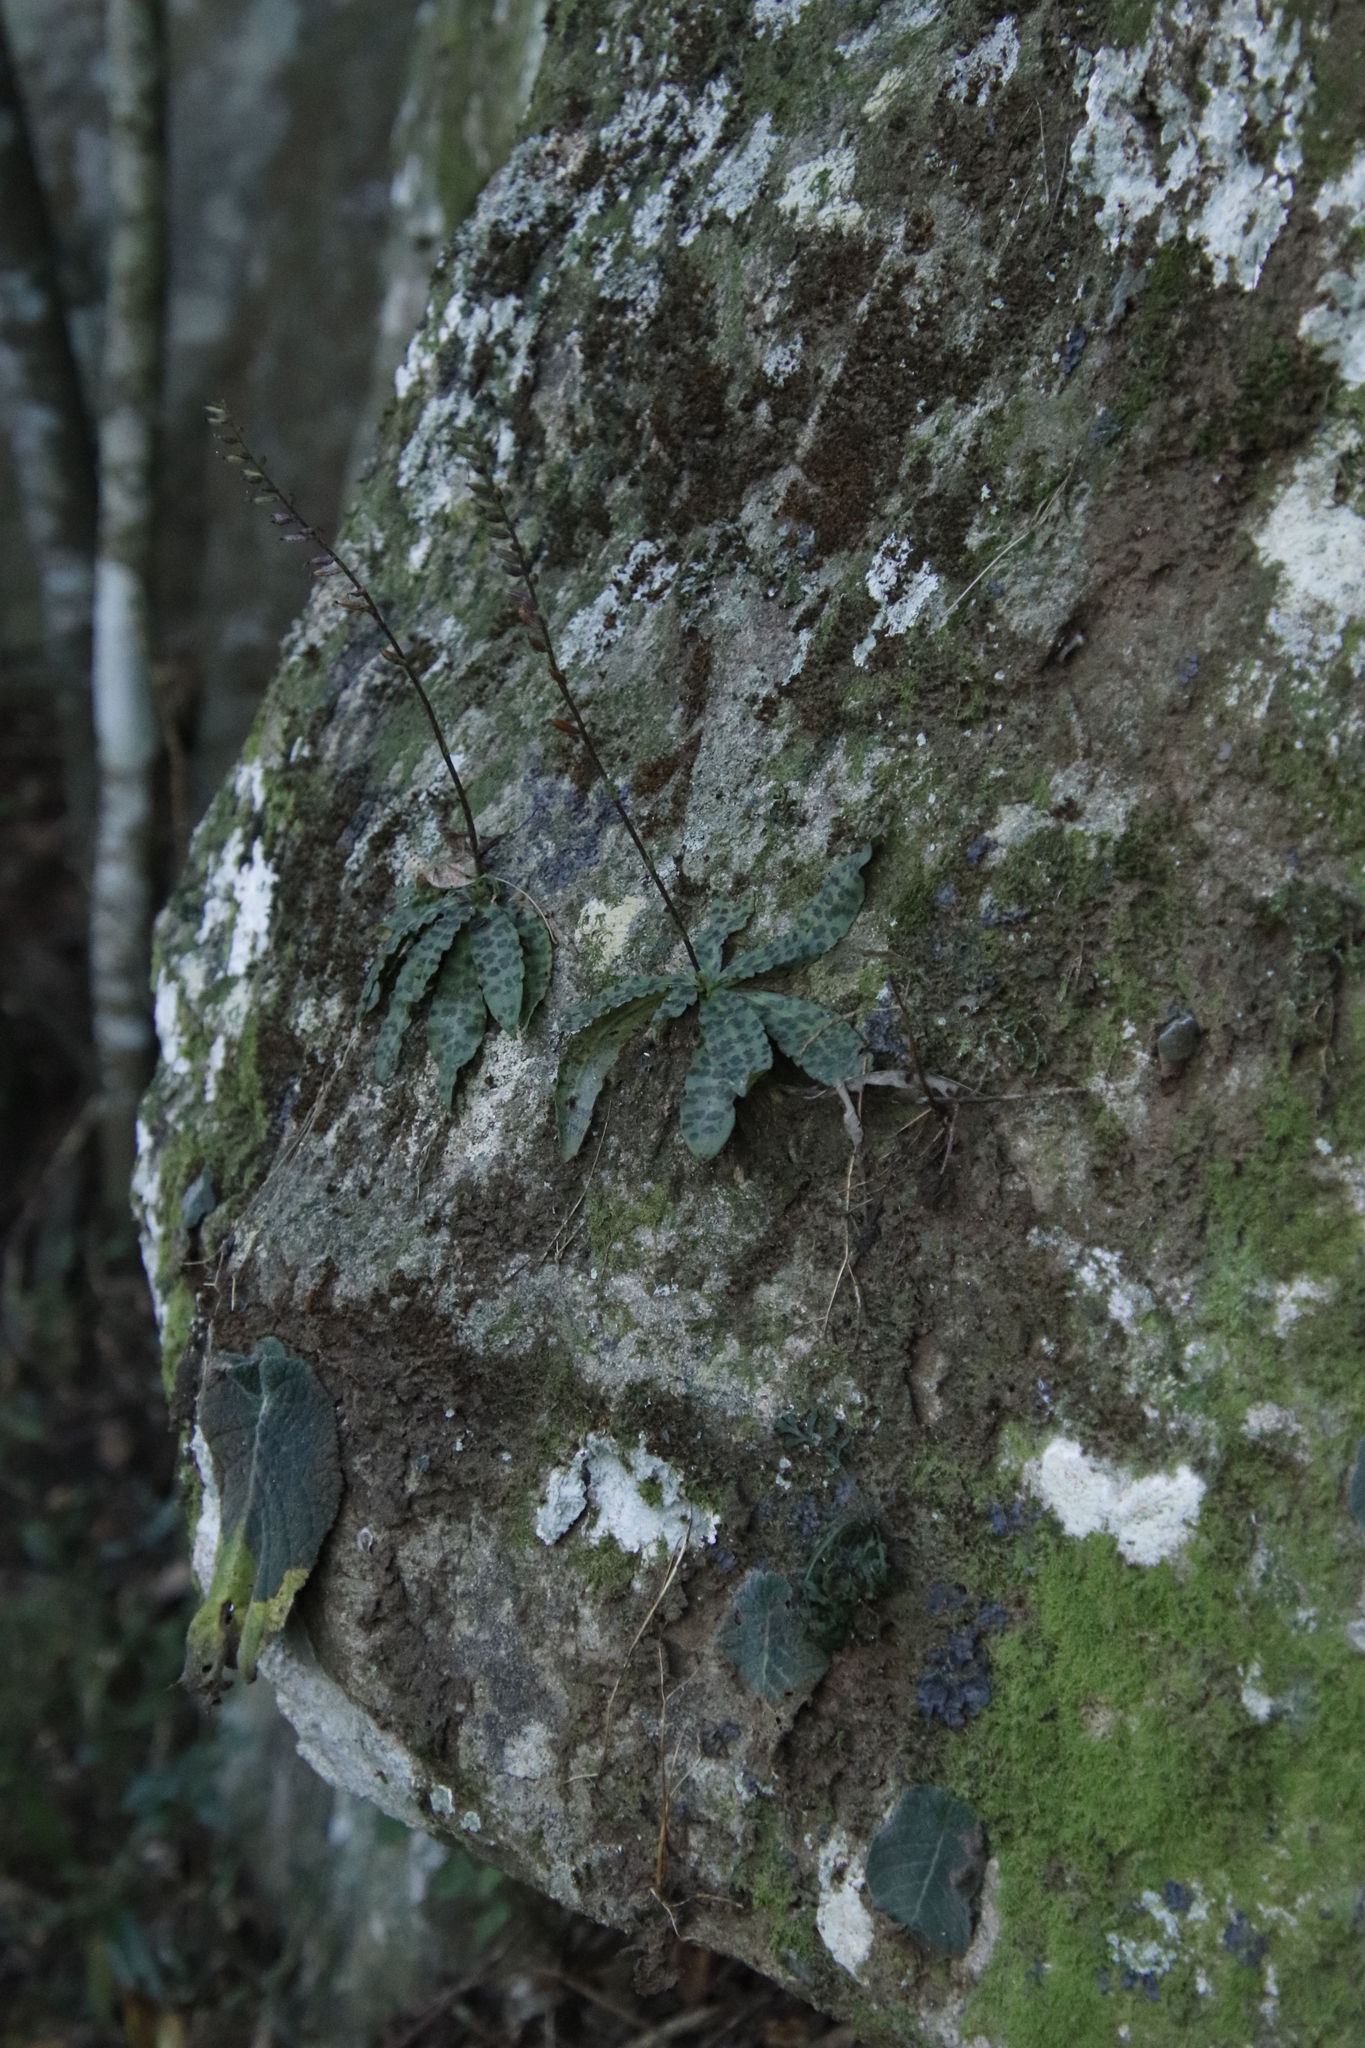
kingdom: Plantae
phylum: Tracheophyta
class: Liliopsida
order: Asparagales
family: Orchidaceae
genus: Stenoglottis
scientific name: Stenoglottis fimbriata
